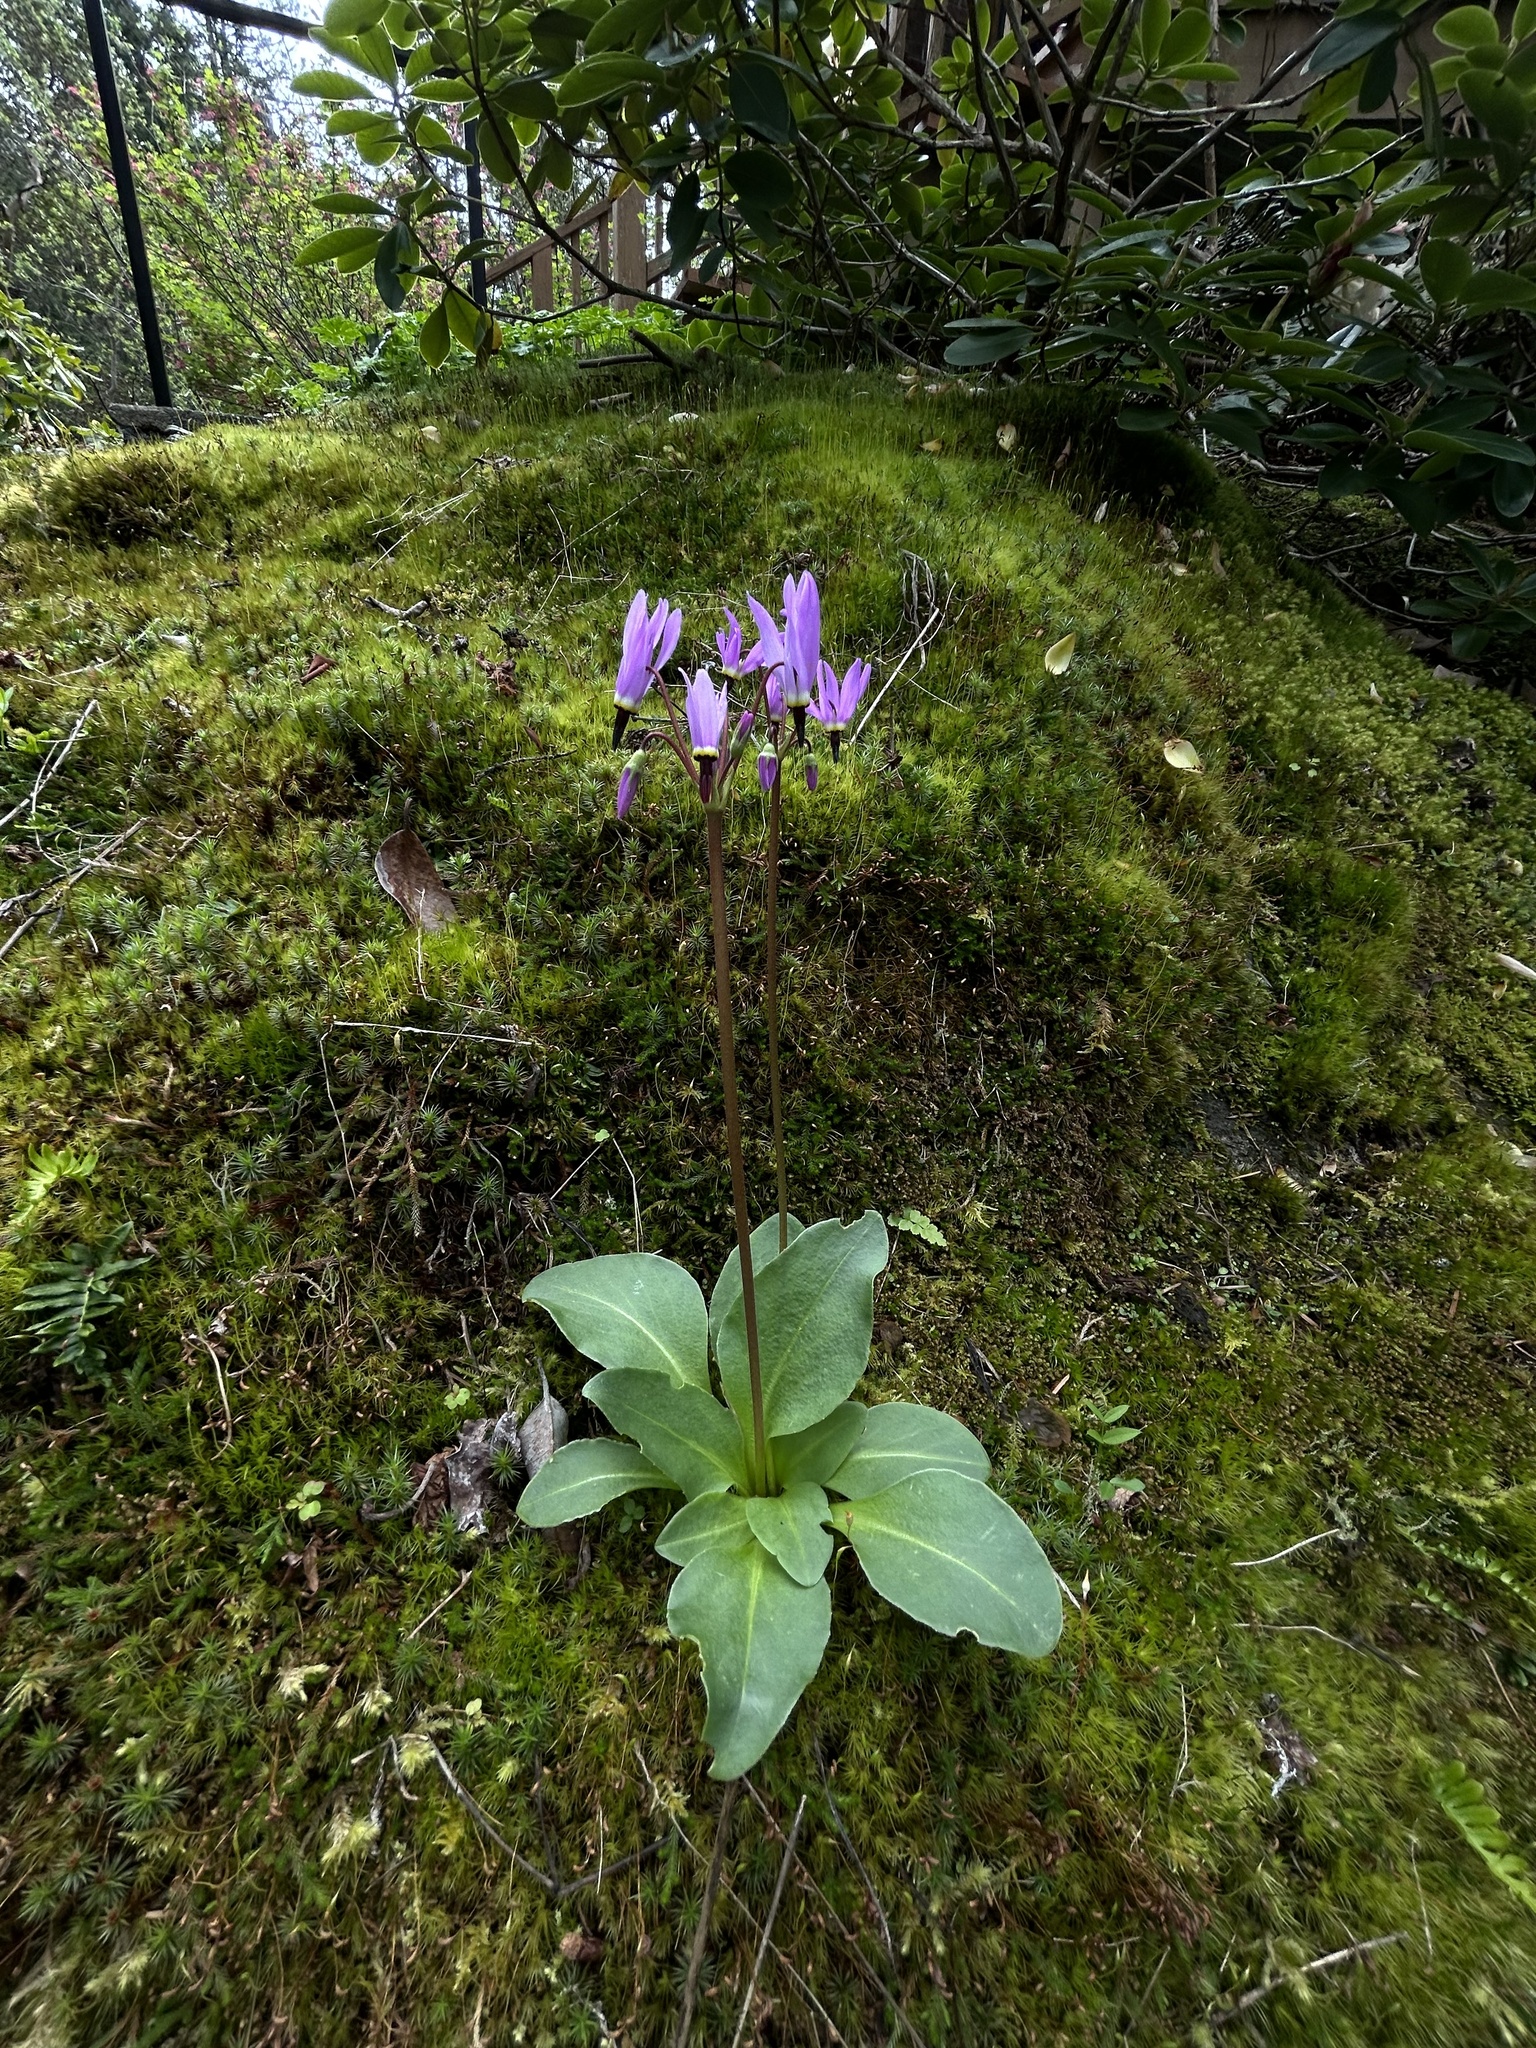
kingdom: Plantae
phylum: Tracheophyta
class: Magnoliopsida
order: Ericales
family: Primulaceae
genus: Dodecatheon
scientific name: Dodecatheon hendersonii
